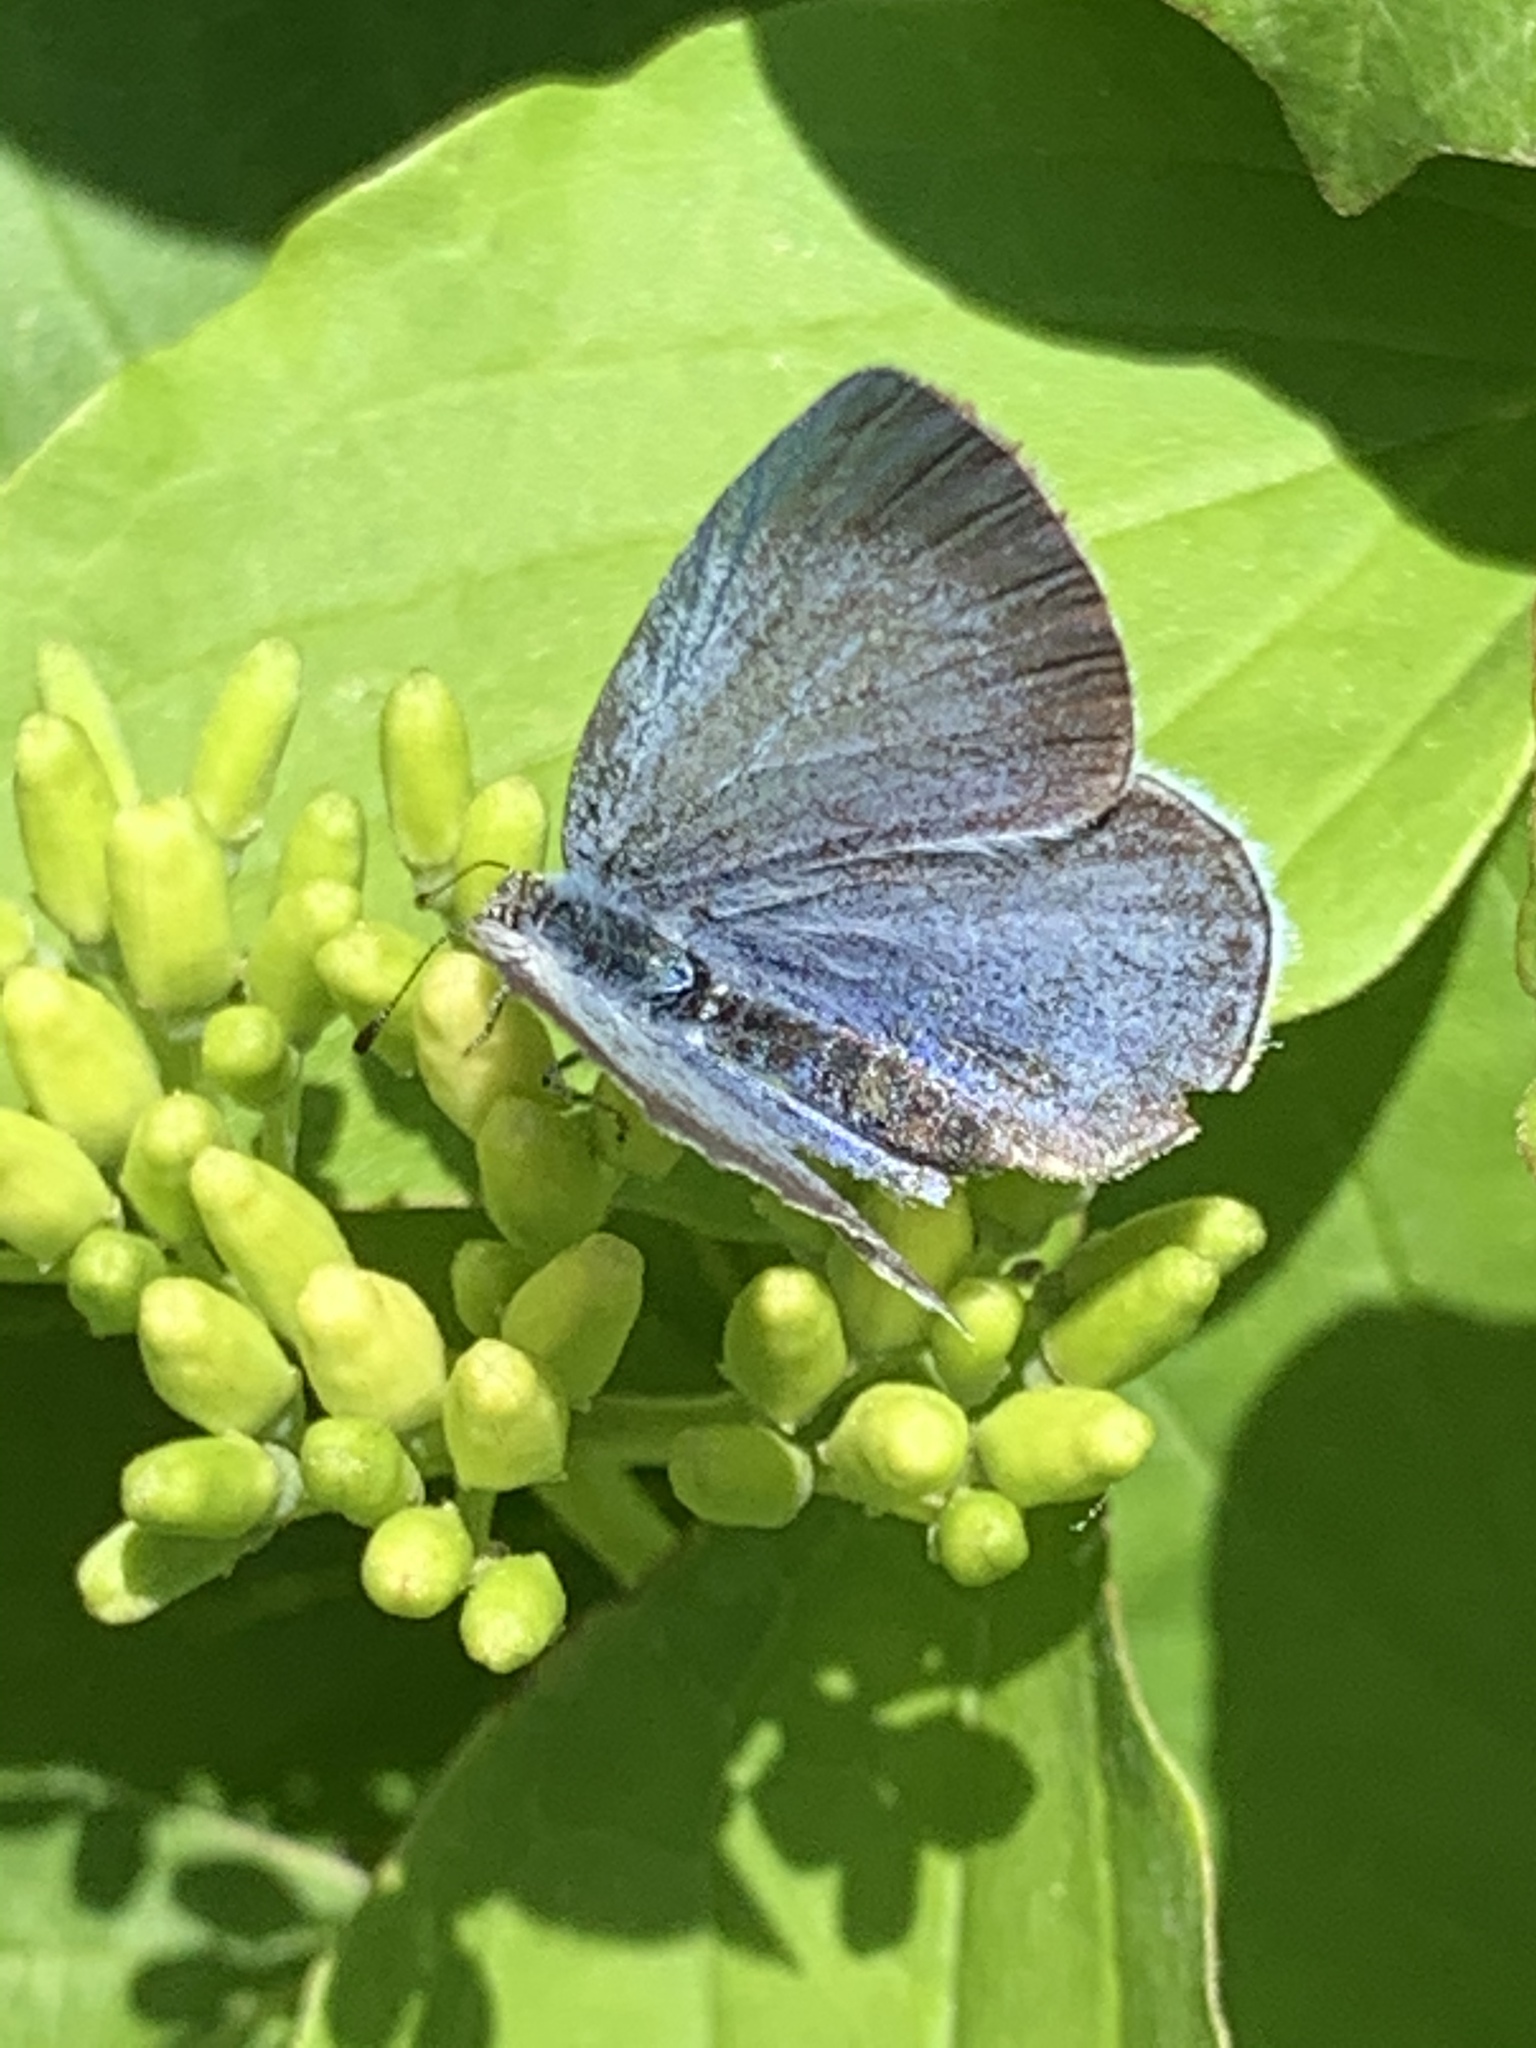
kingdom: Animalia
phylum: Arthropoda
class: Insecta
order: Lepidoptera
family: Lycaenidae
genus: Celastrina
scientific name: Celastrina argiolus
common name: Holly blue
